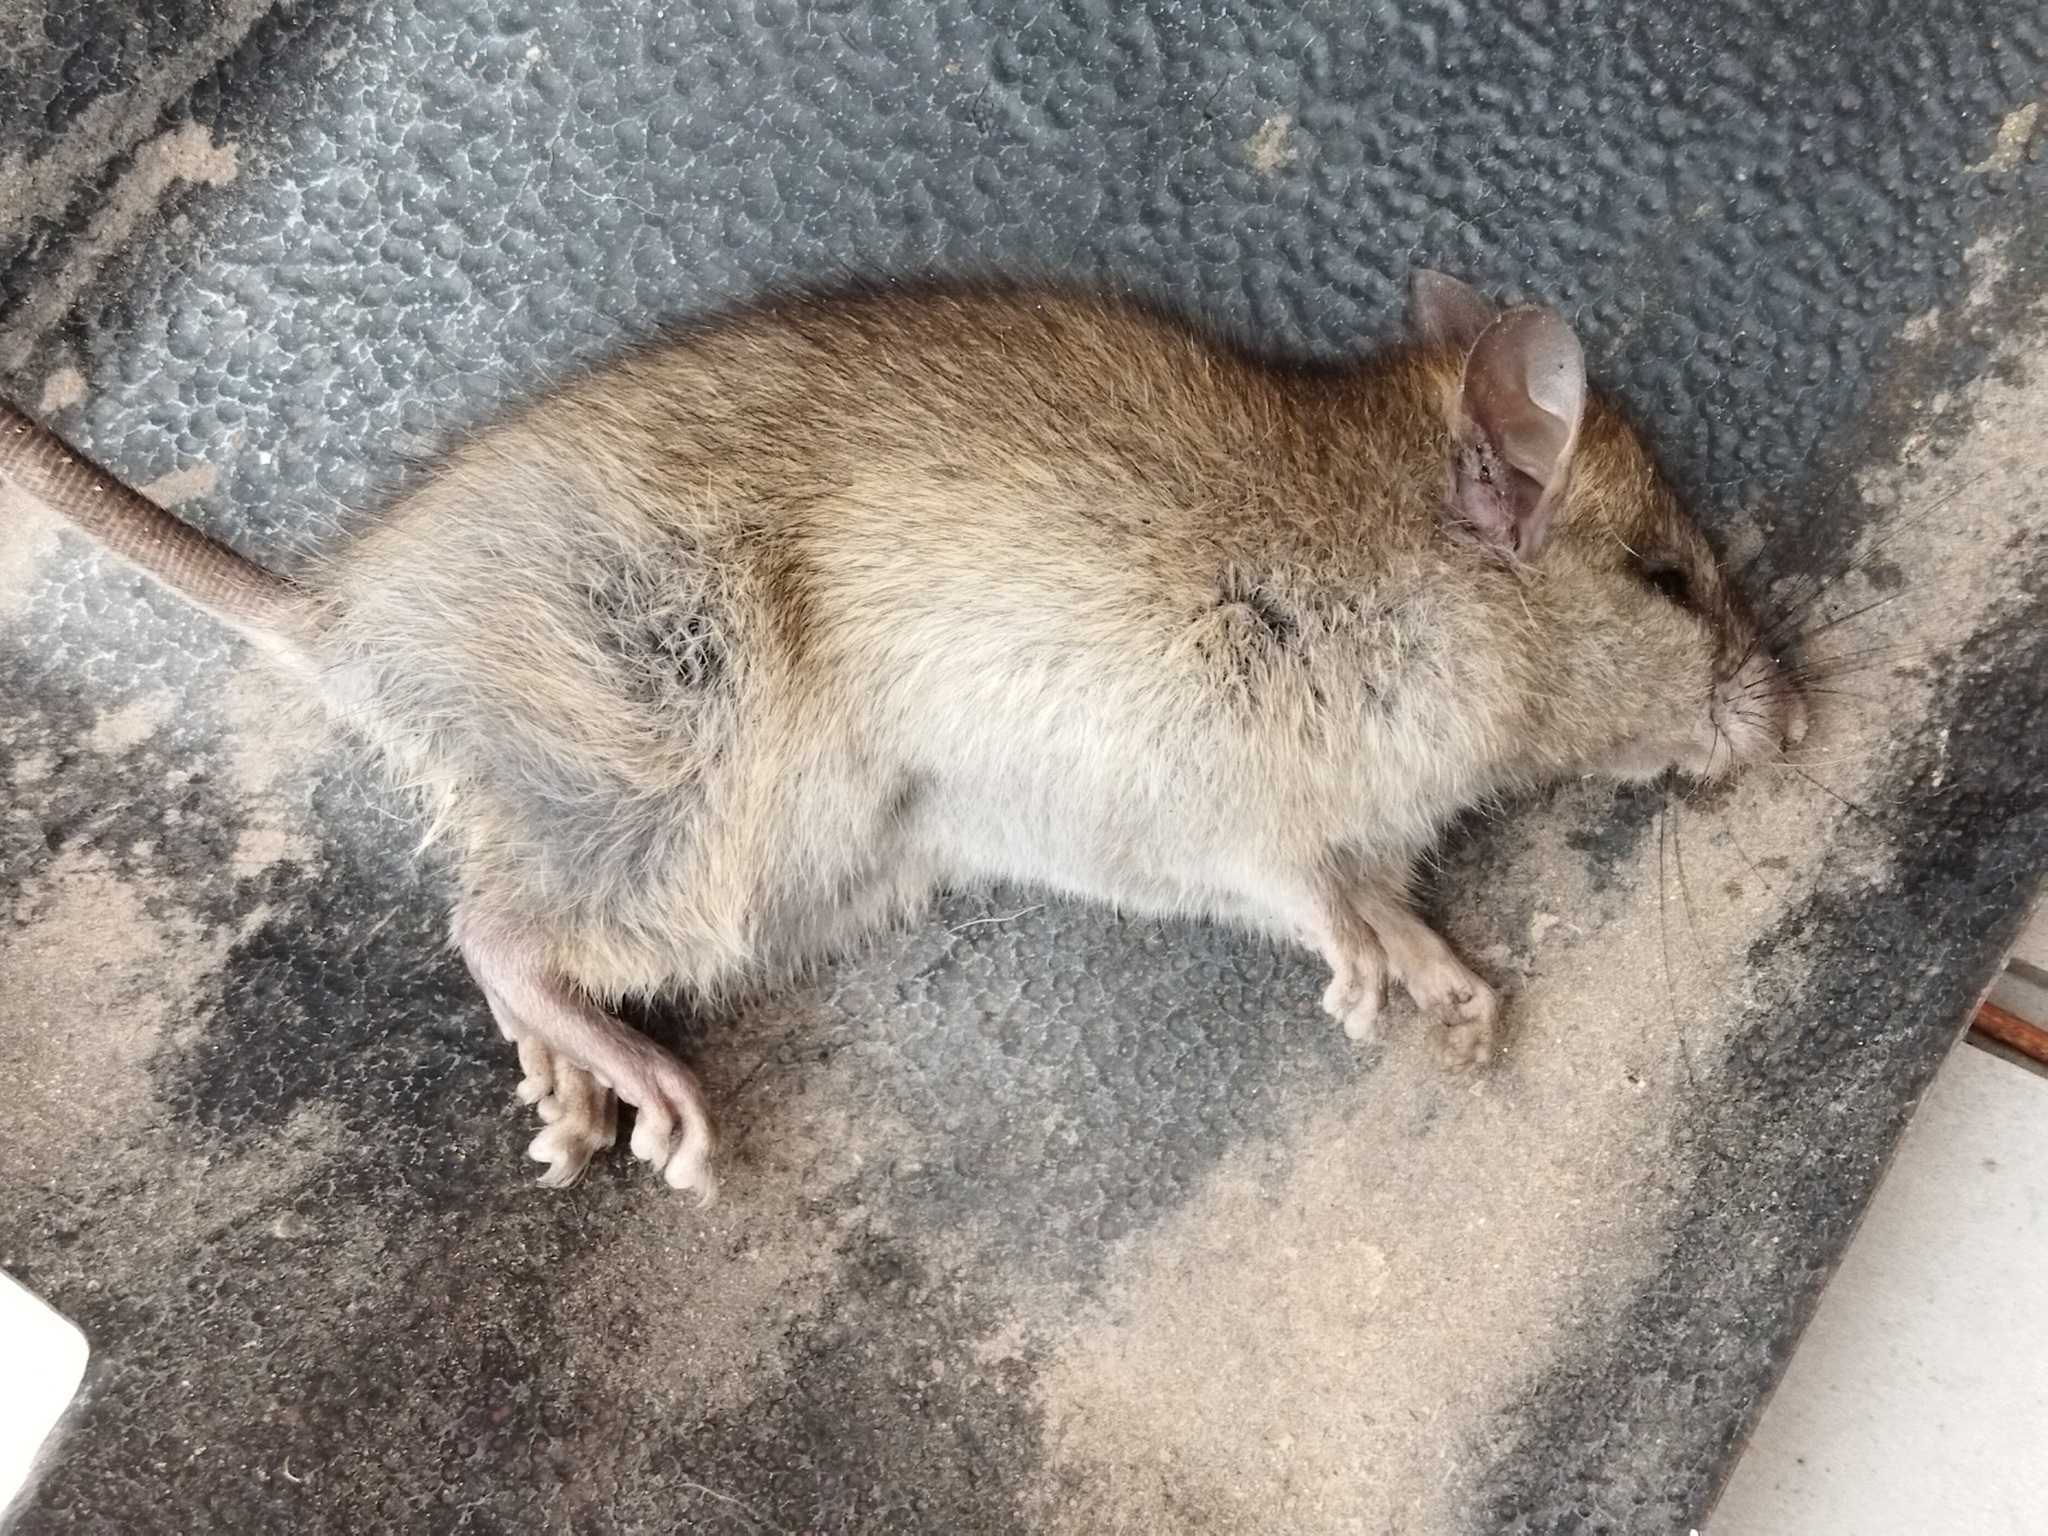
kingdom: Animalia
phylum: Chordata
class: Mammalia
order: Rodentia
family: Muridae
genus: Rattus
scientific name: Rattus norvegicus
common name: Brown rat
